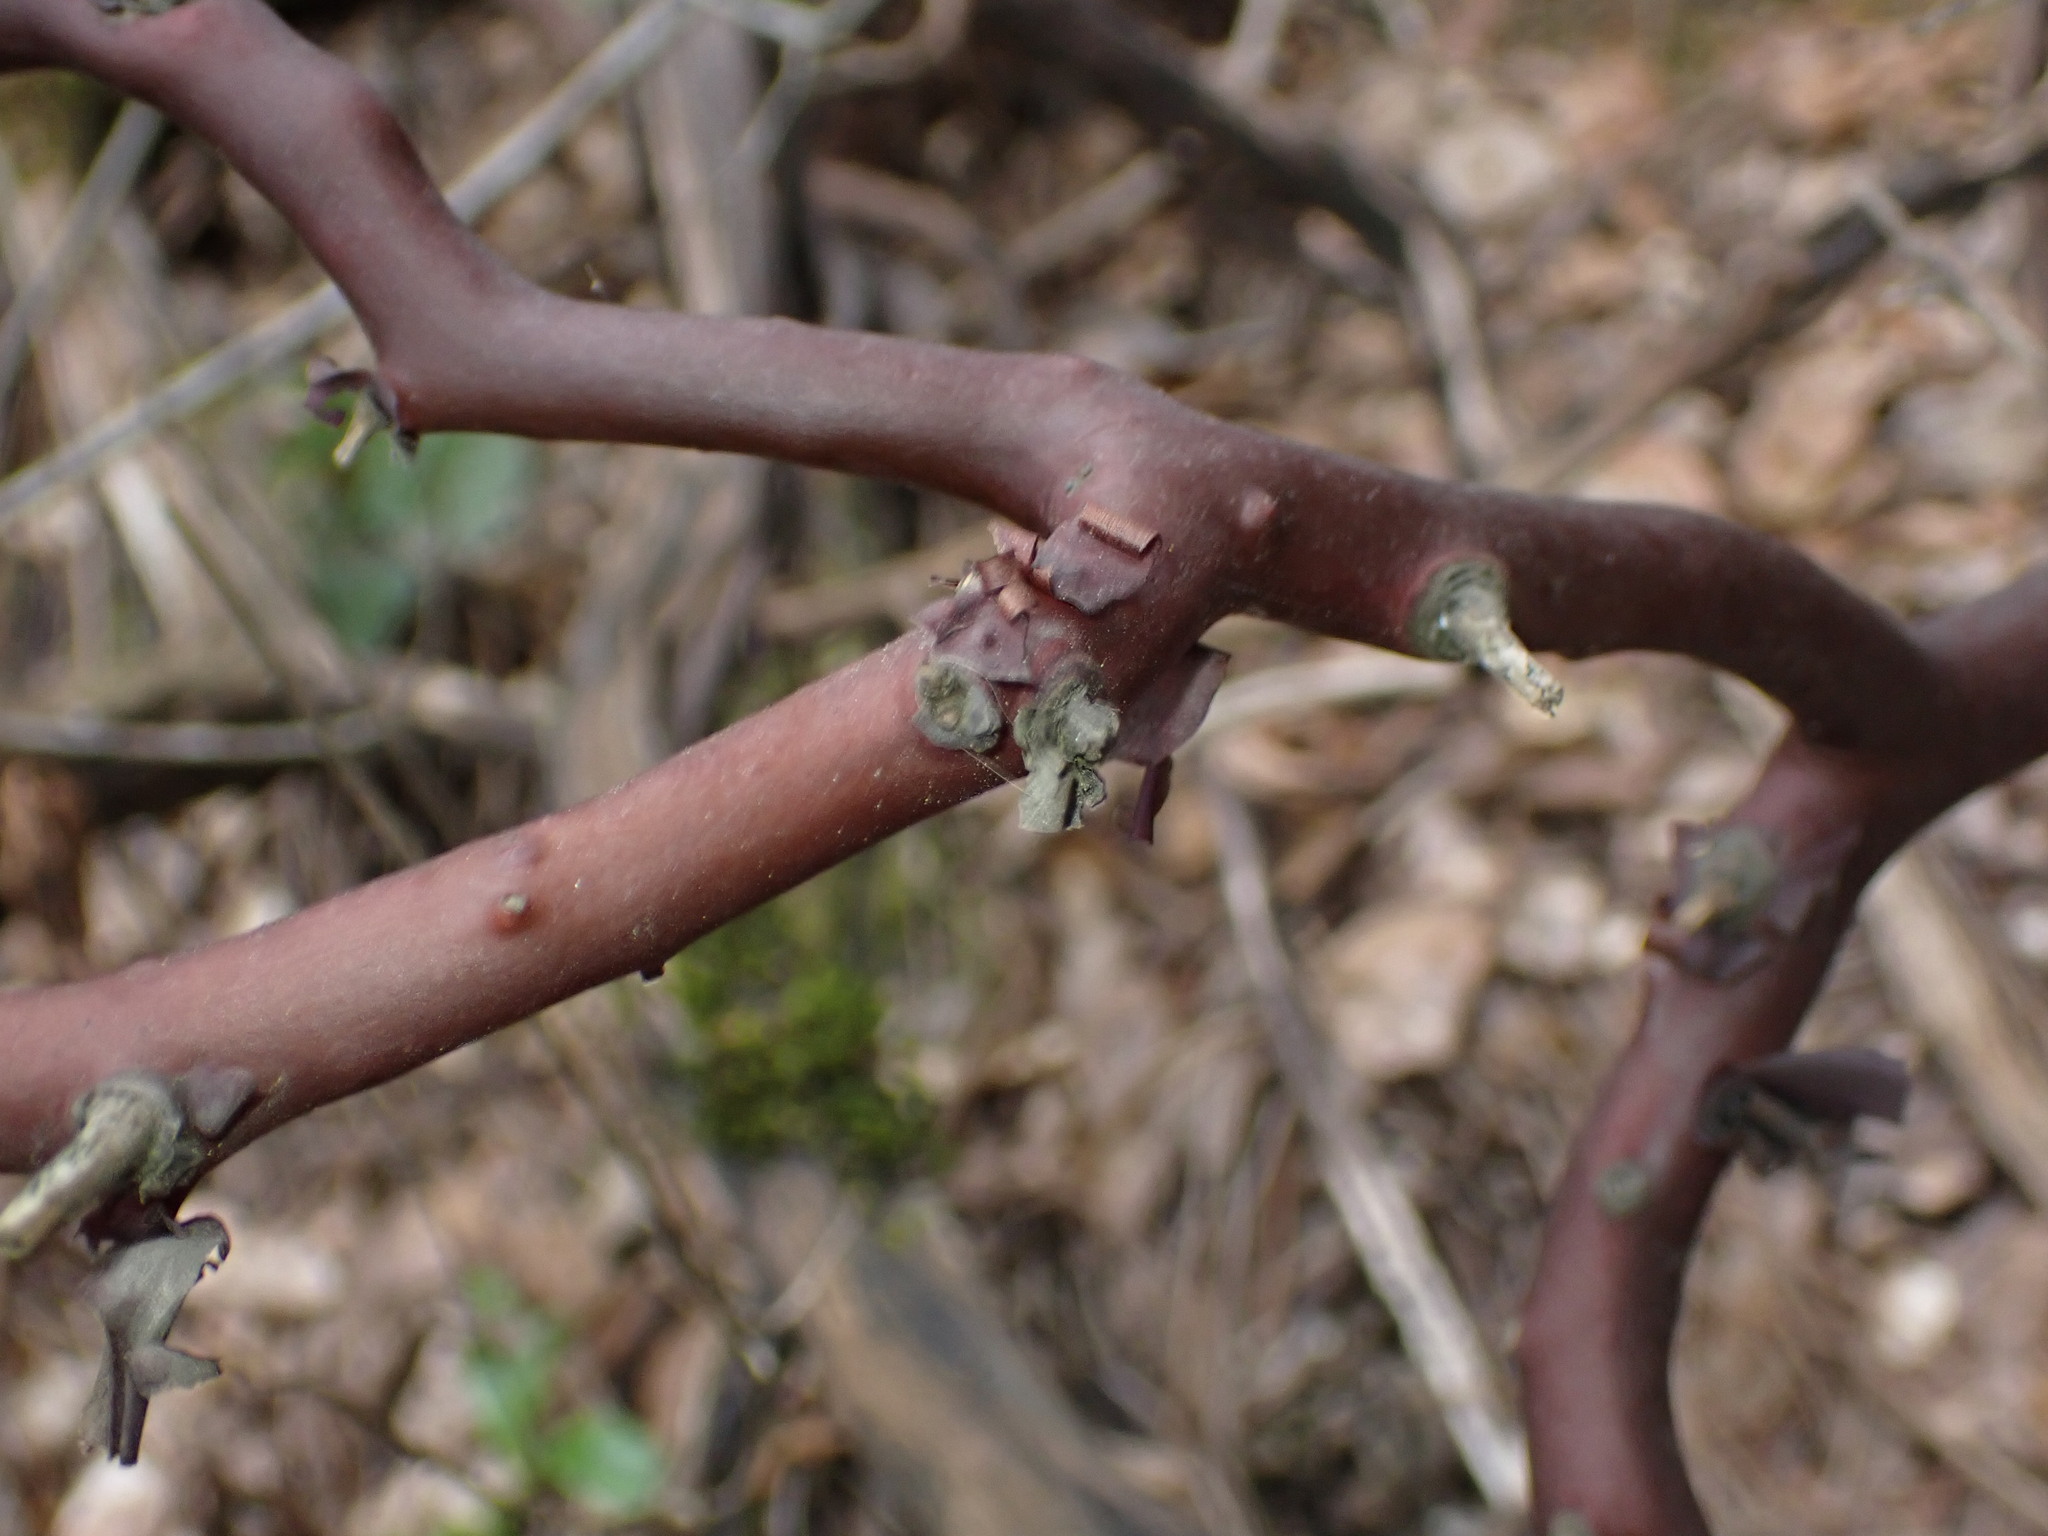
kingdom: Plantae
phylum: Tracheophyta
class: Magnoliopsida
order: Ericales
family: Ericaceae
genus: Arctostaphylos
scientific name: Arctostaphylos crustacea
